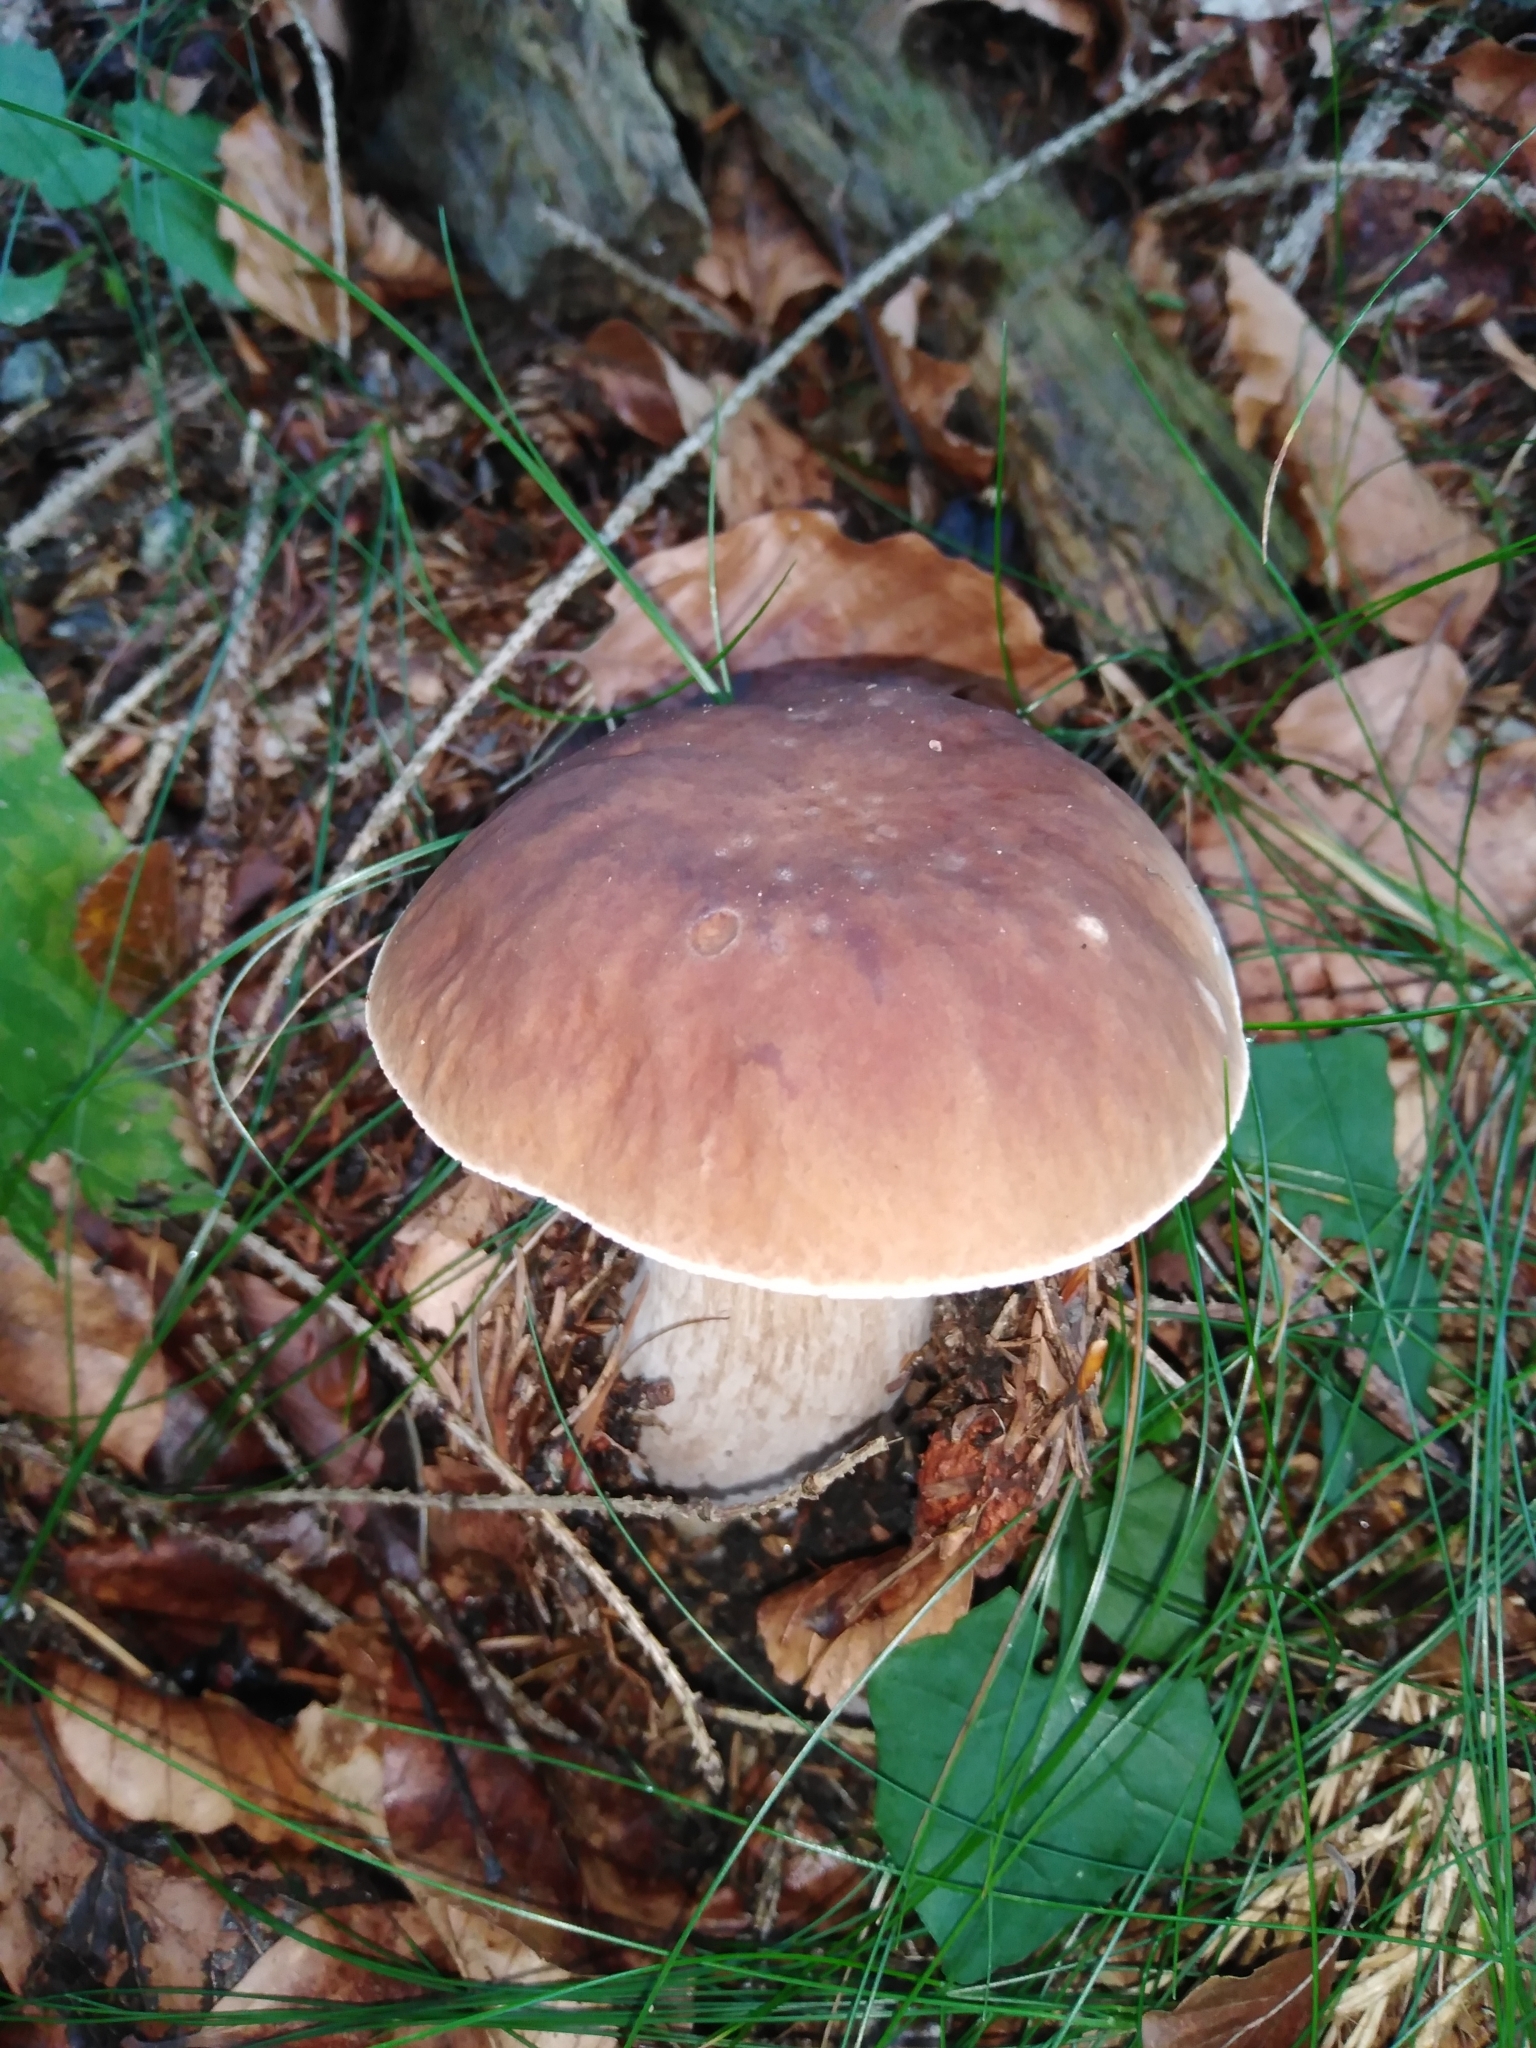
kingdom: Fungi
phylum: Basidiomycota
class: Agaricomycetes
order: Boletales
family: Boletaceae
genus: Boletus
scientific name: Boletus edulis
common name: Cep
